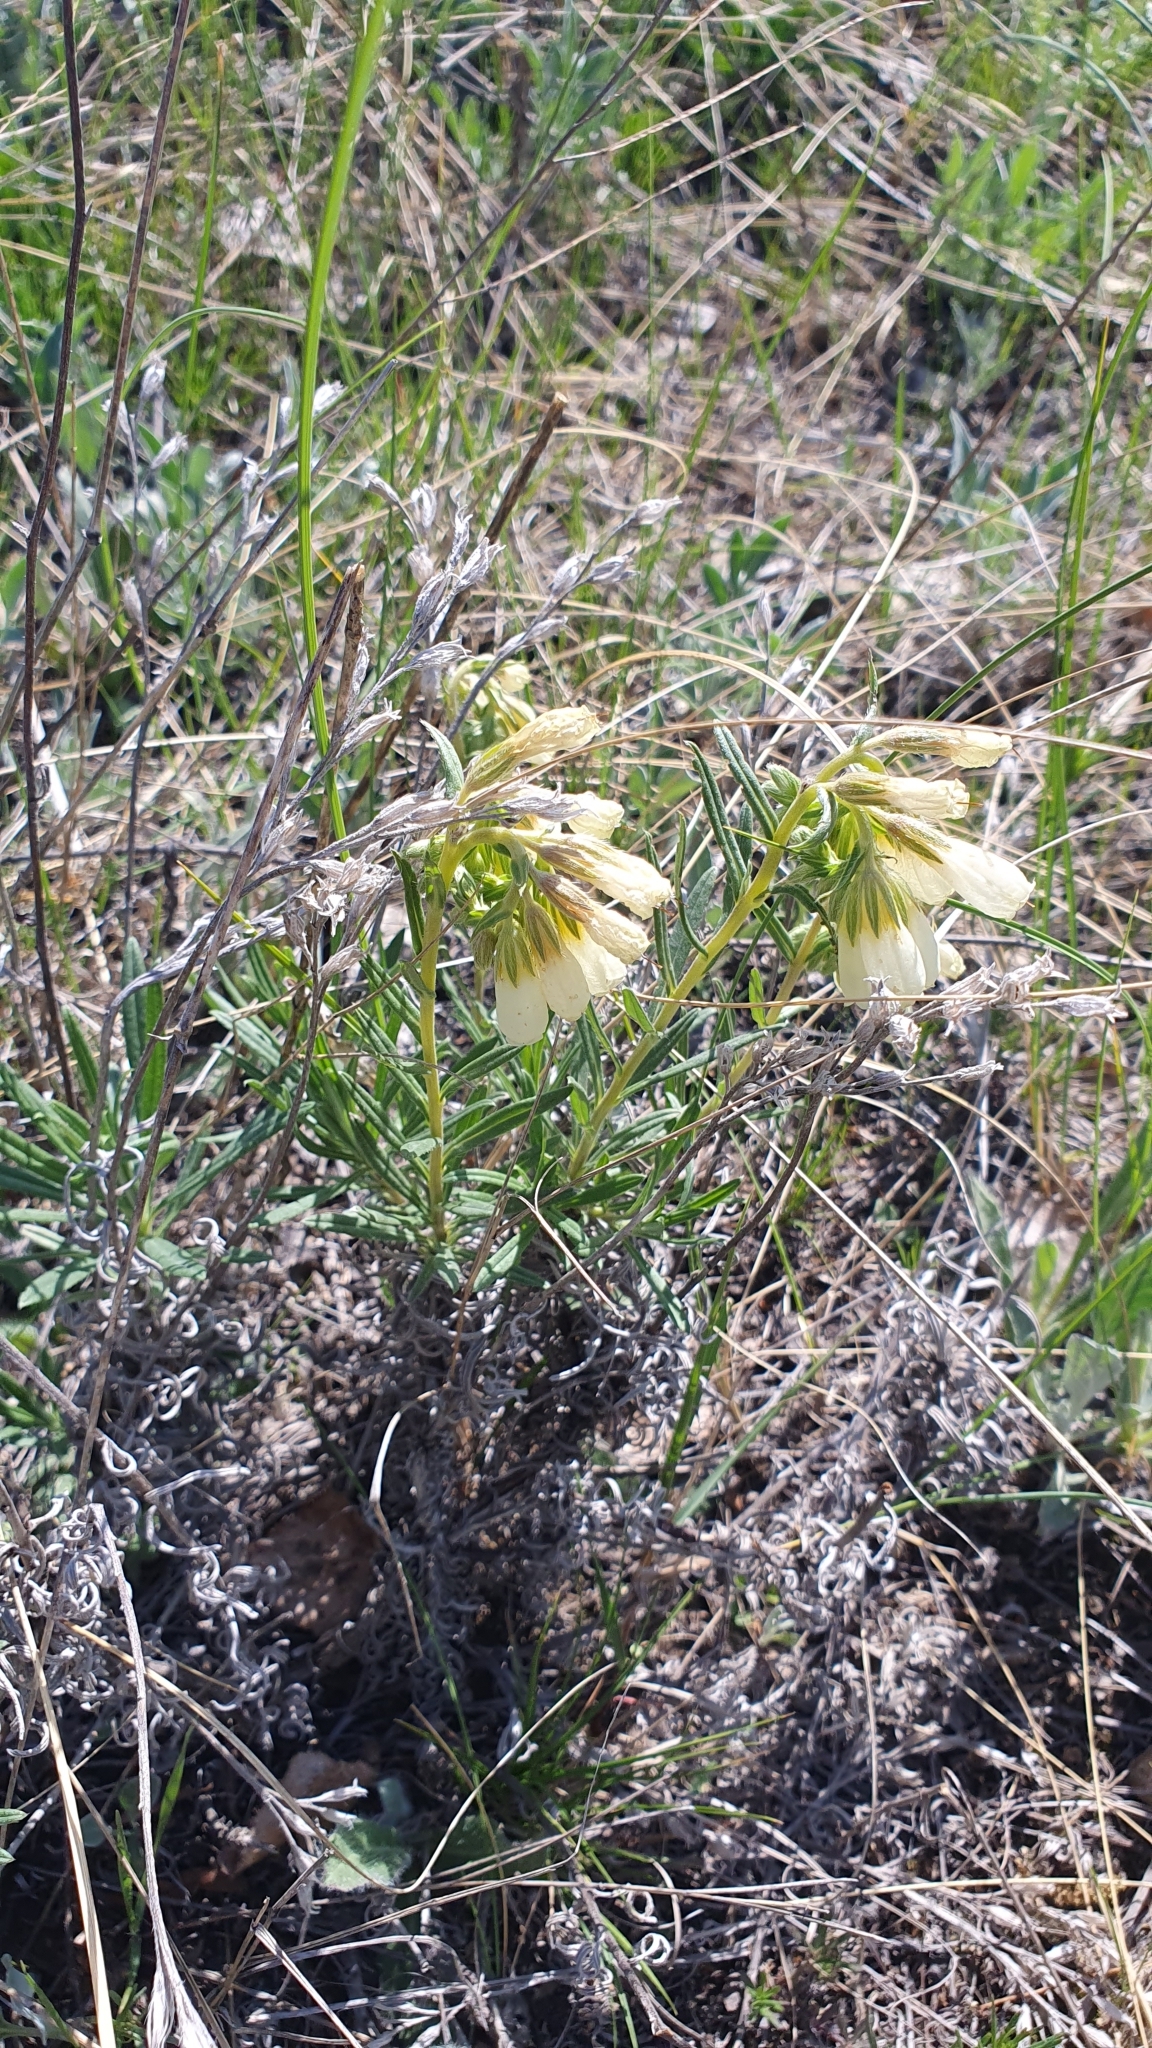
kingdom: Plantae
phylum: Tracheophyta
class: Magnoliopsida
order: Boraginales
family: Boraginaceae
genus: Onosma
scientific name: Onosma simplicissima
